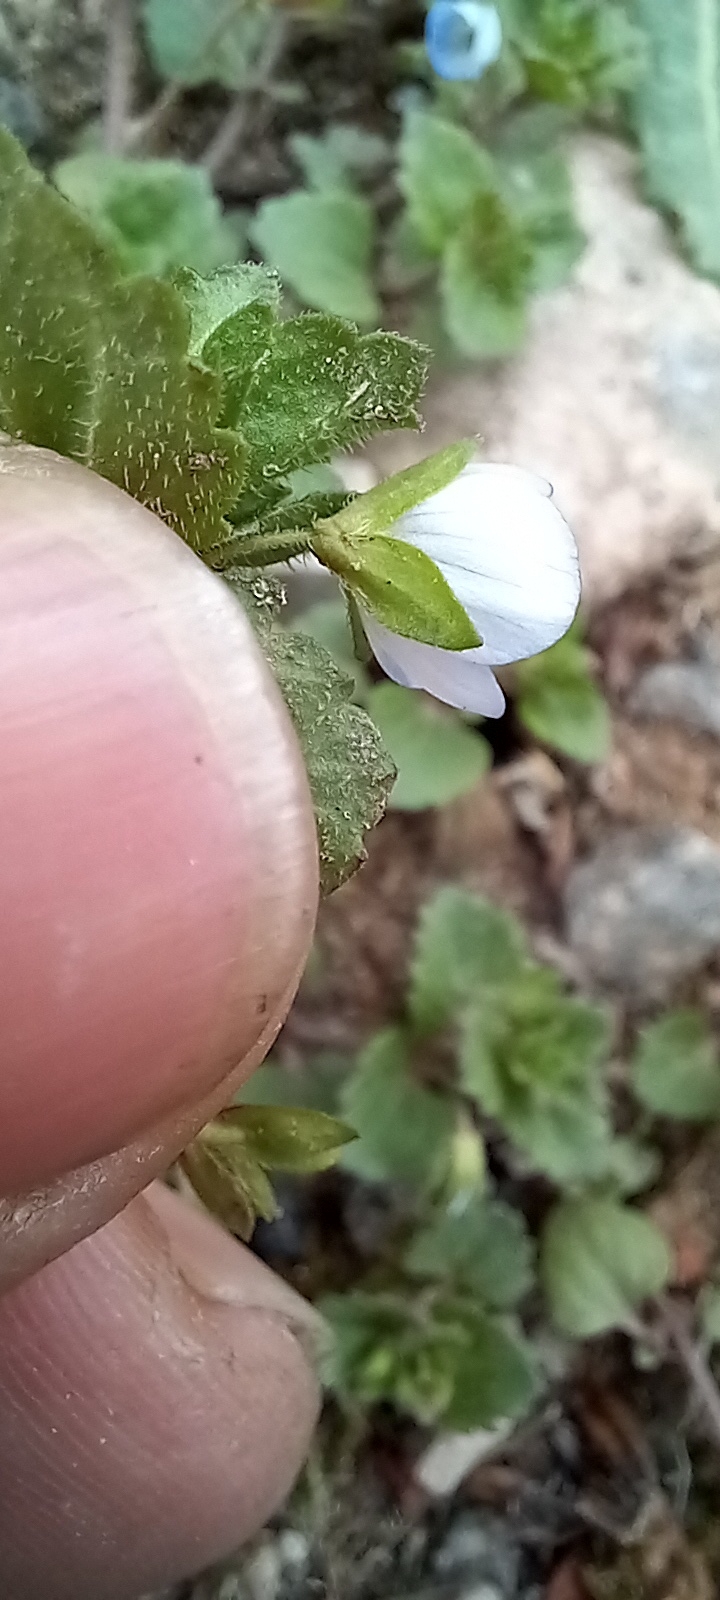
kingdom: Plantae
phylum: Tracheophyta
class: Magnoliopsida
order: Lamiales
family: Plantaginaceae
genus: Veronica
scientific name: Veronica persica
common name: Common field-speedwell
